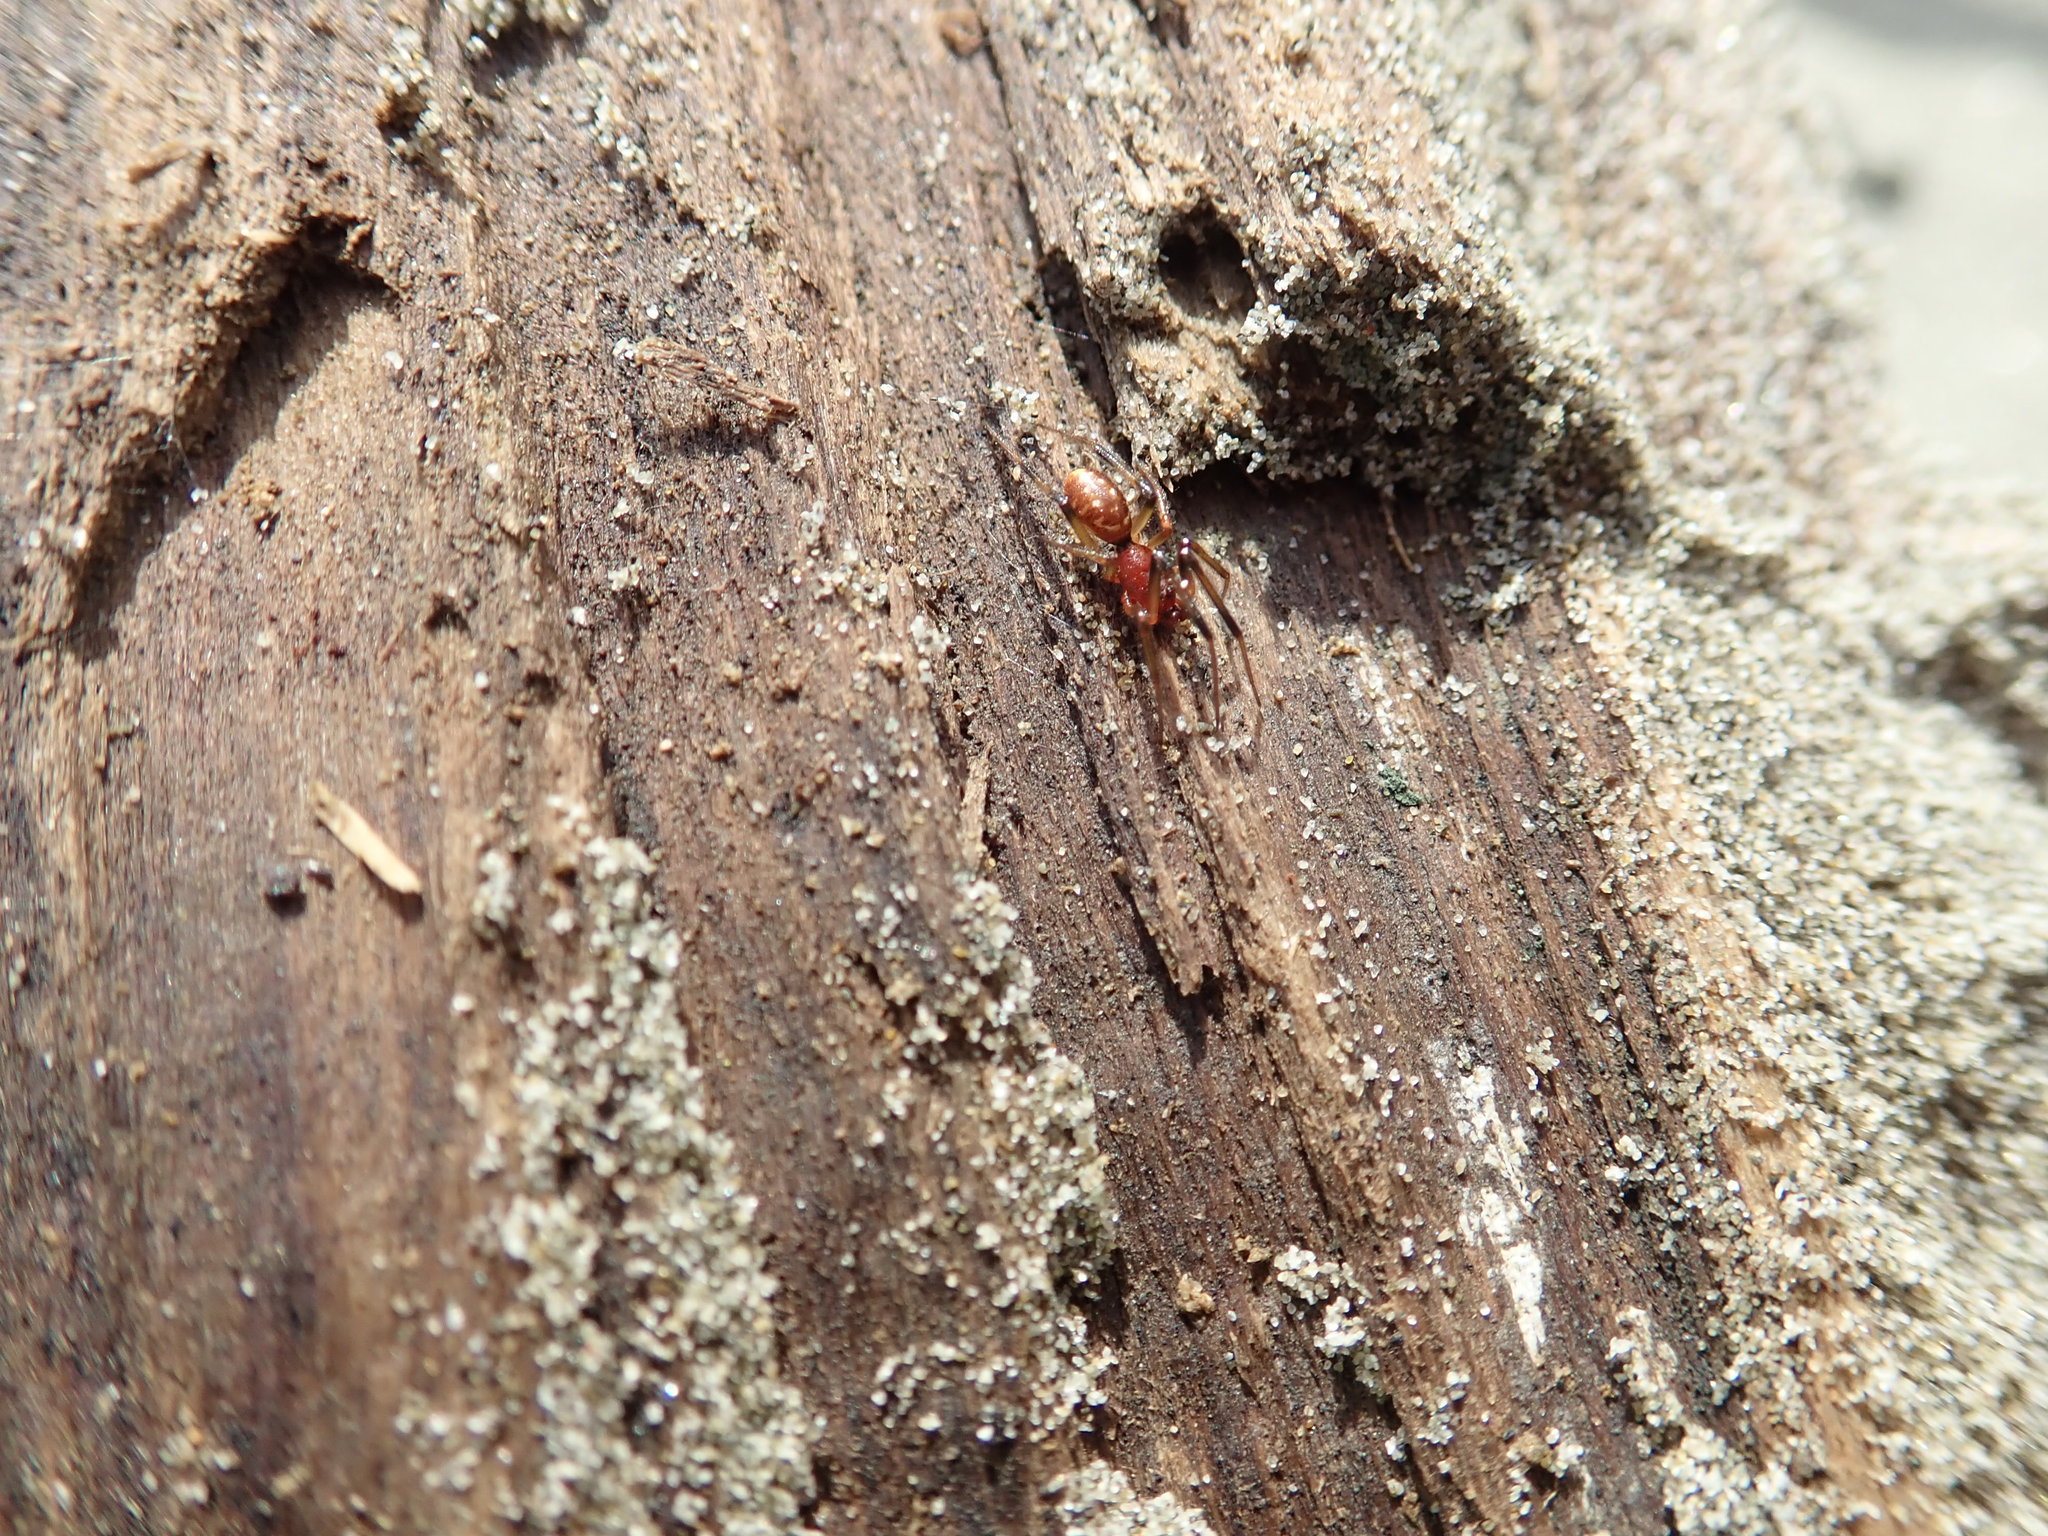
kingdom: Animalia
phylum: Arthropoda
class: Arachnida
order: Araneae
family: Theridiidae
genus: Steatoda
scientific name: Steatoda capensis
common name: Cobweb weaver
